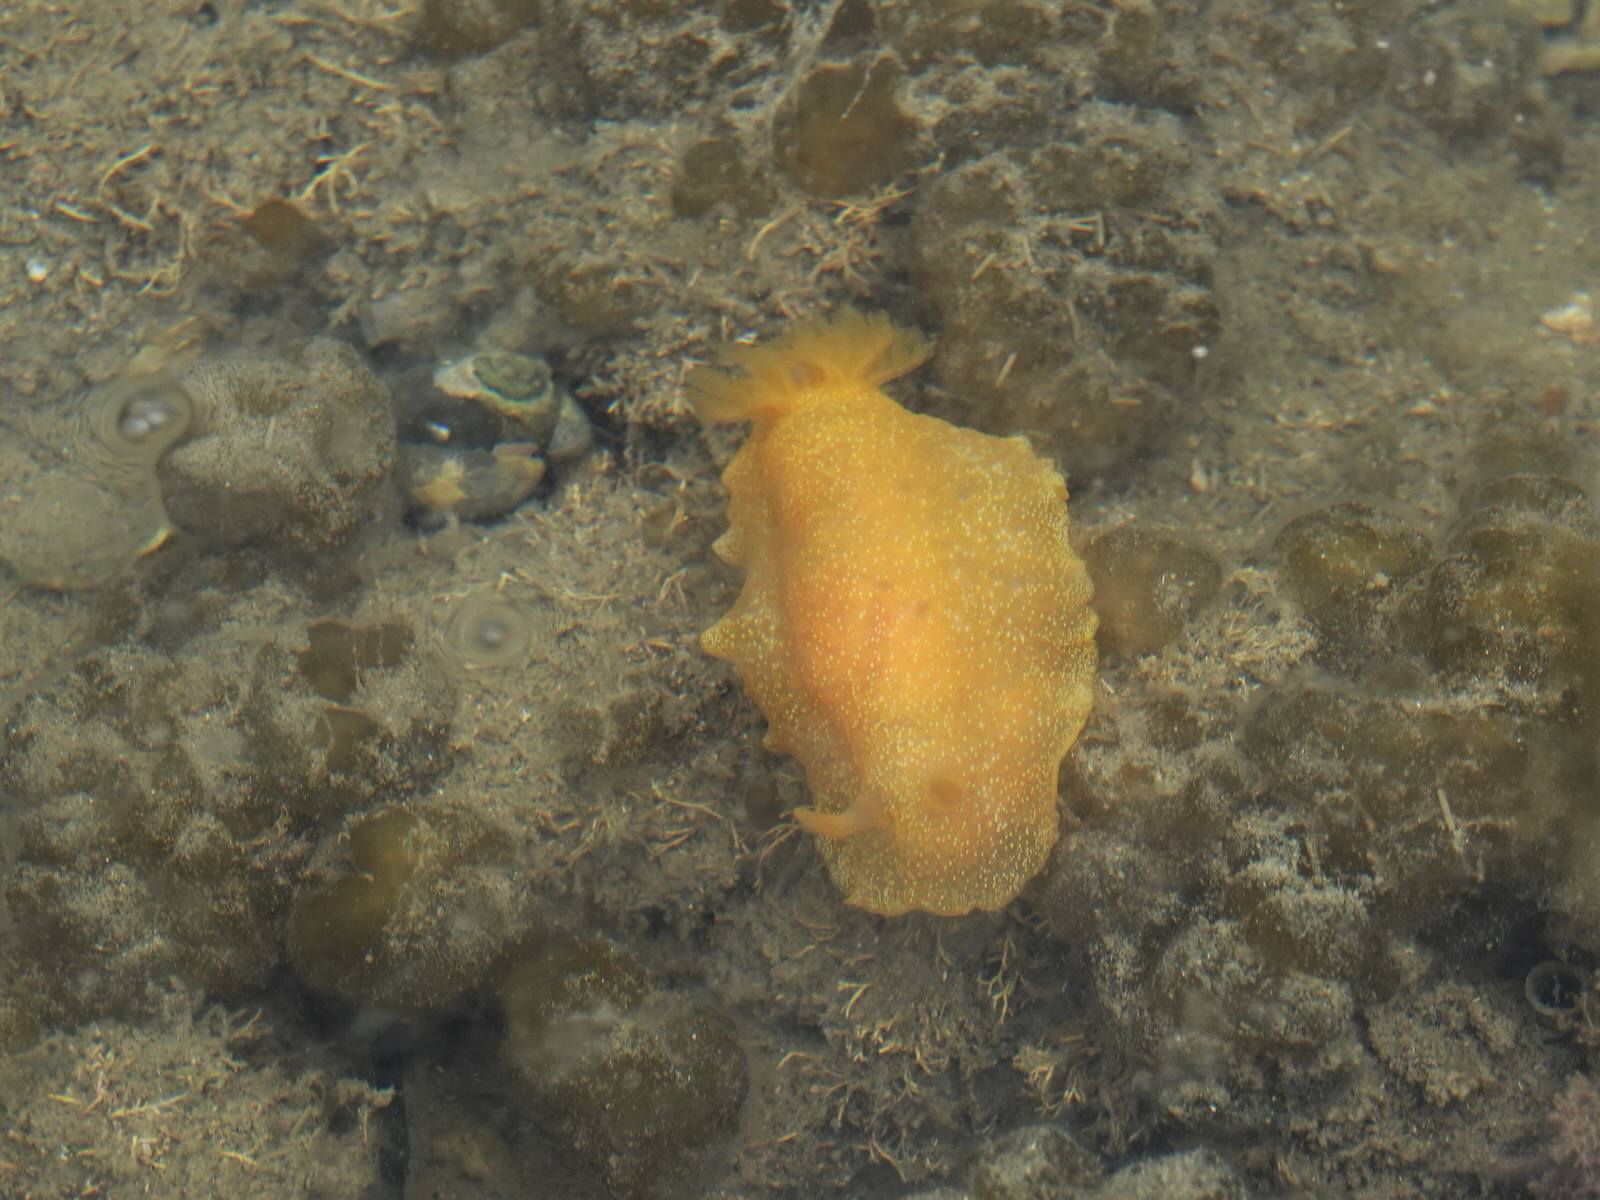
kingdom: Animalia
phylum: Mollusca
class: Gastropoda
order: Nudibranchia
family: Dendrodorididae
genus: Dendrodoris
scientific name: Dendrodoris citrina
